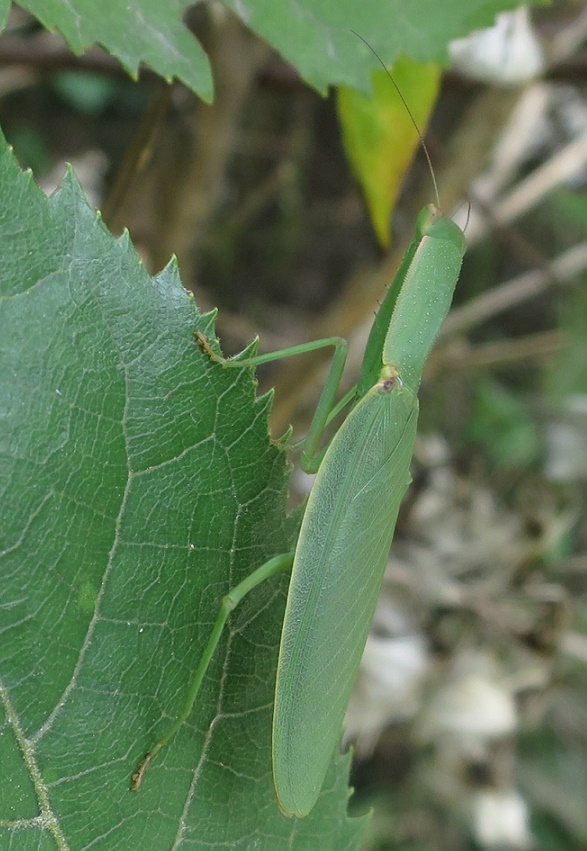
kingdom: Animalia
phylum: Arthropoda
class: Insecta
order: Mantodea
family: Mantidae
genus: Orthodera
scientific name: Orthodera novaezealandiae
